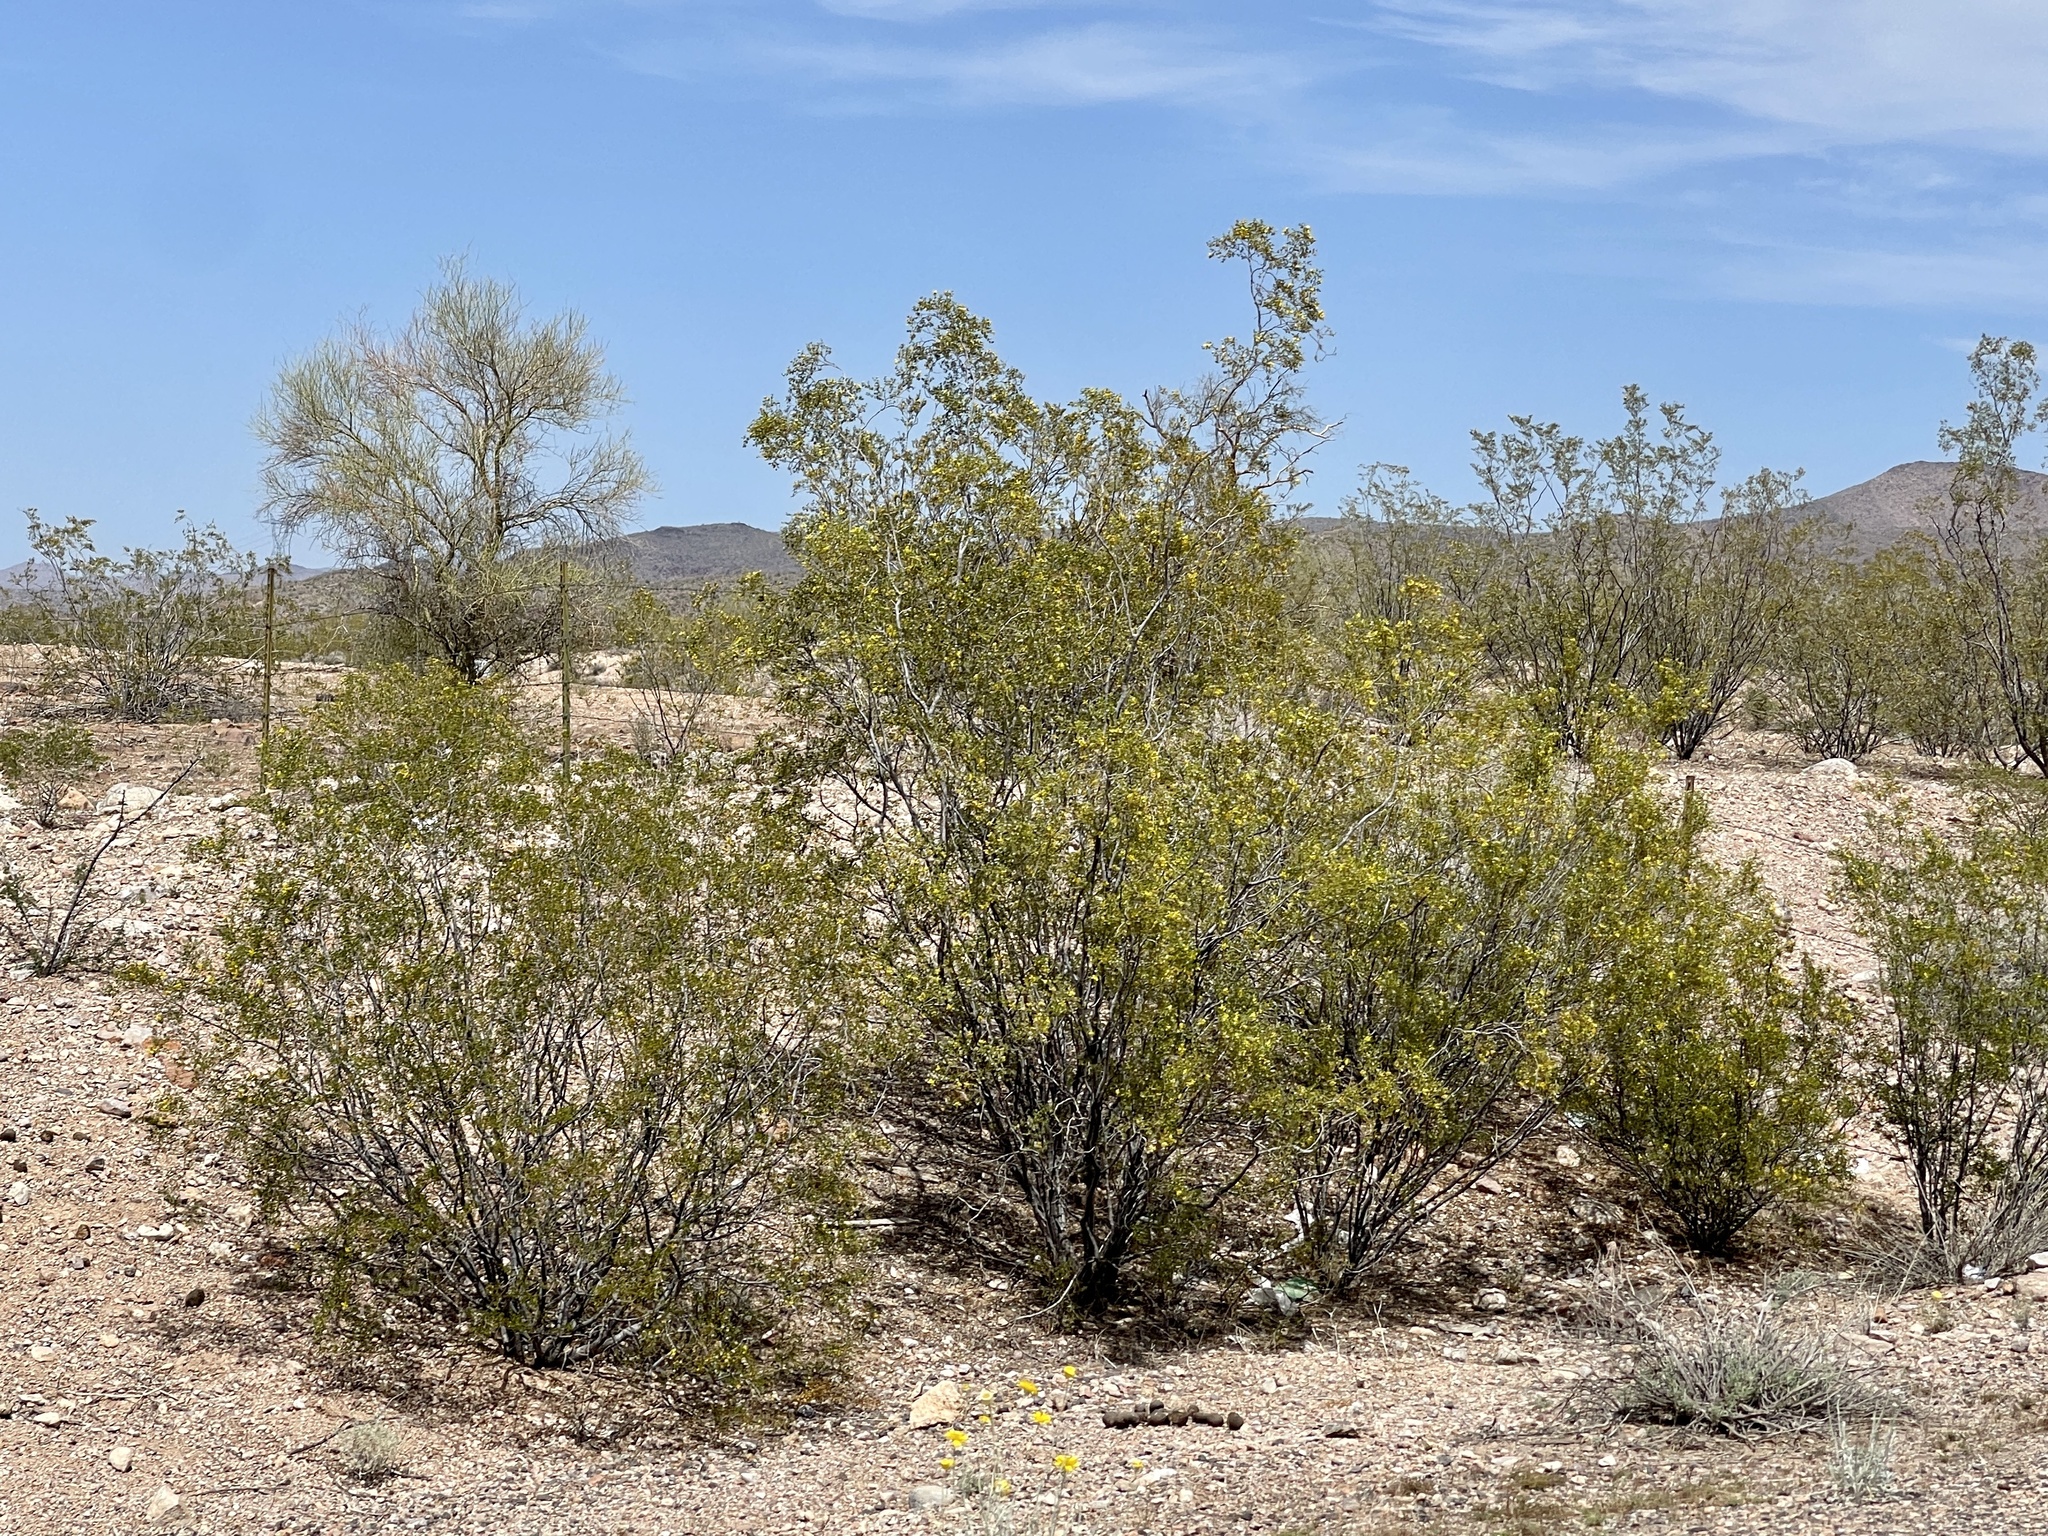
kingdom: Plantae
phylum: Tracheophyta
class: Magnoliopsida
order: Zygophyllales
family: Zygophyllaceae
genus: Larrea
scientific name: Larrea tridentata
